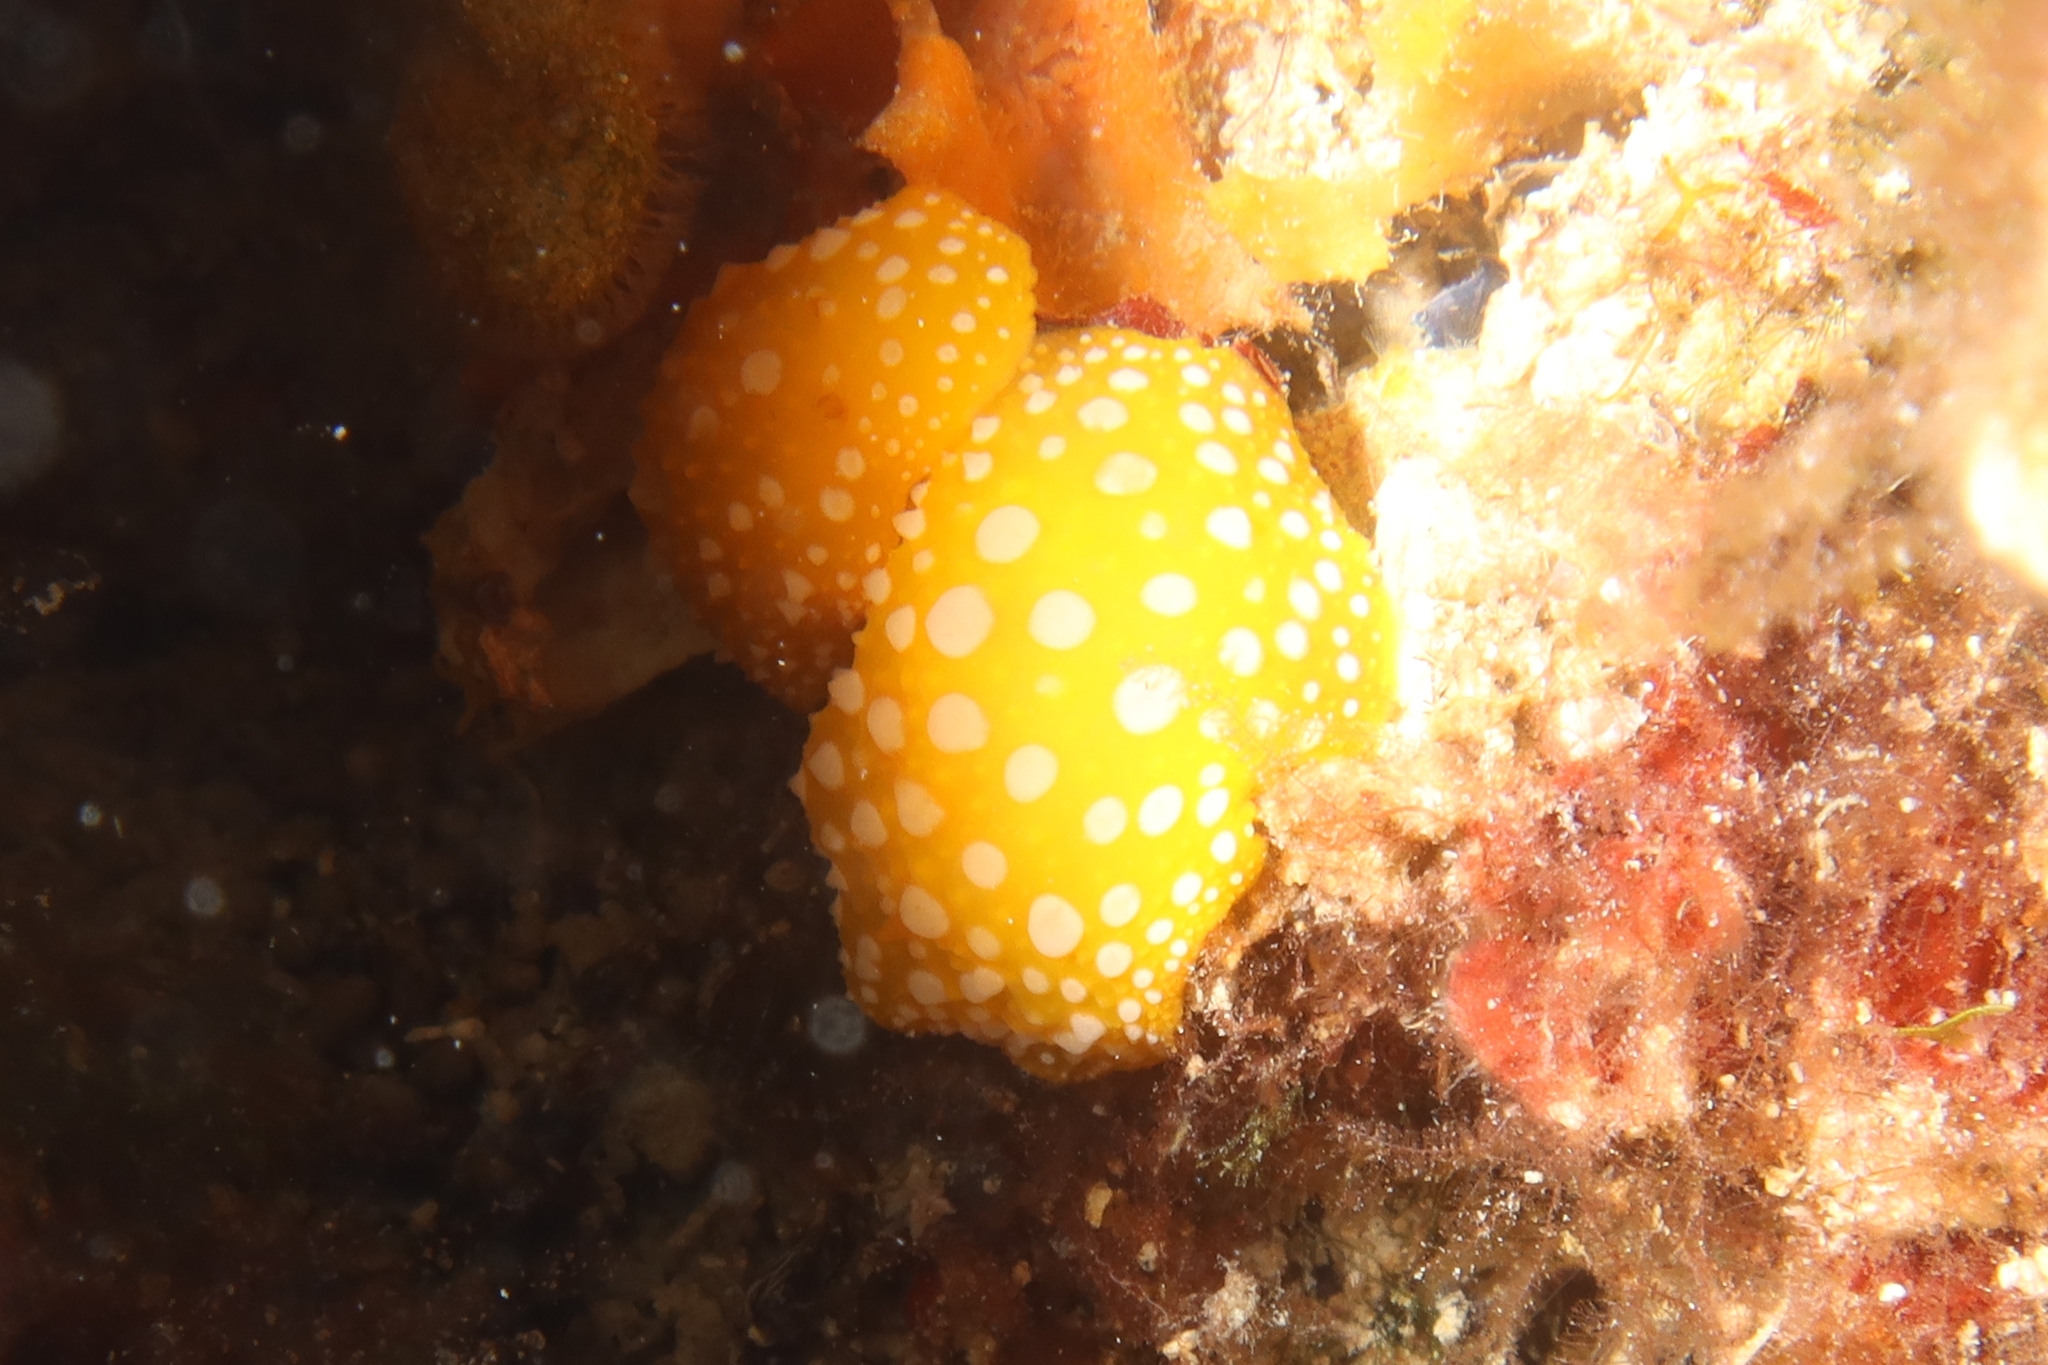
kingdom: Animalia
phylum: Mollusca
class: Gastropoda
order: Nudibranchia
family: Phyllidiidae
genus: Phyllidia
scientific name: Phyllidia flava
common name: White-spotted yellow nudibranch
